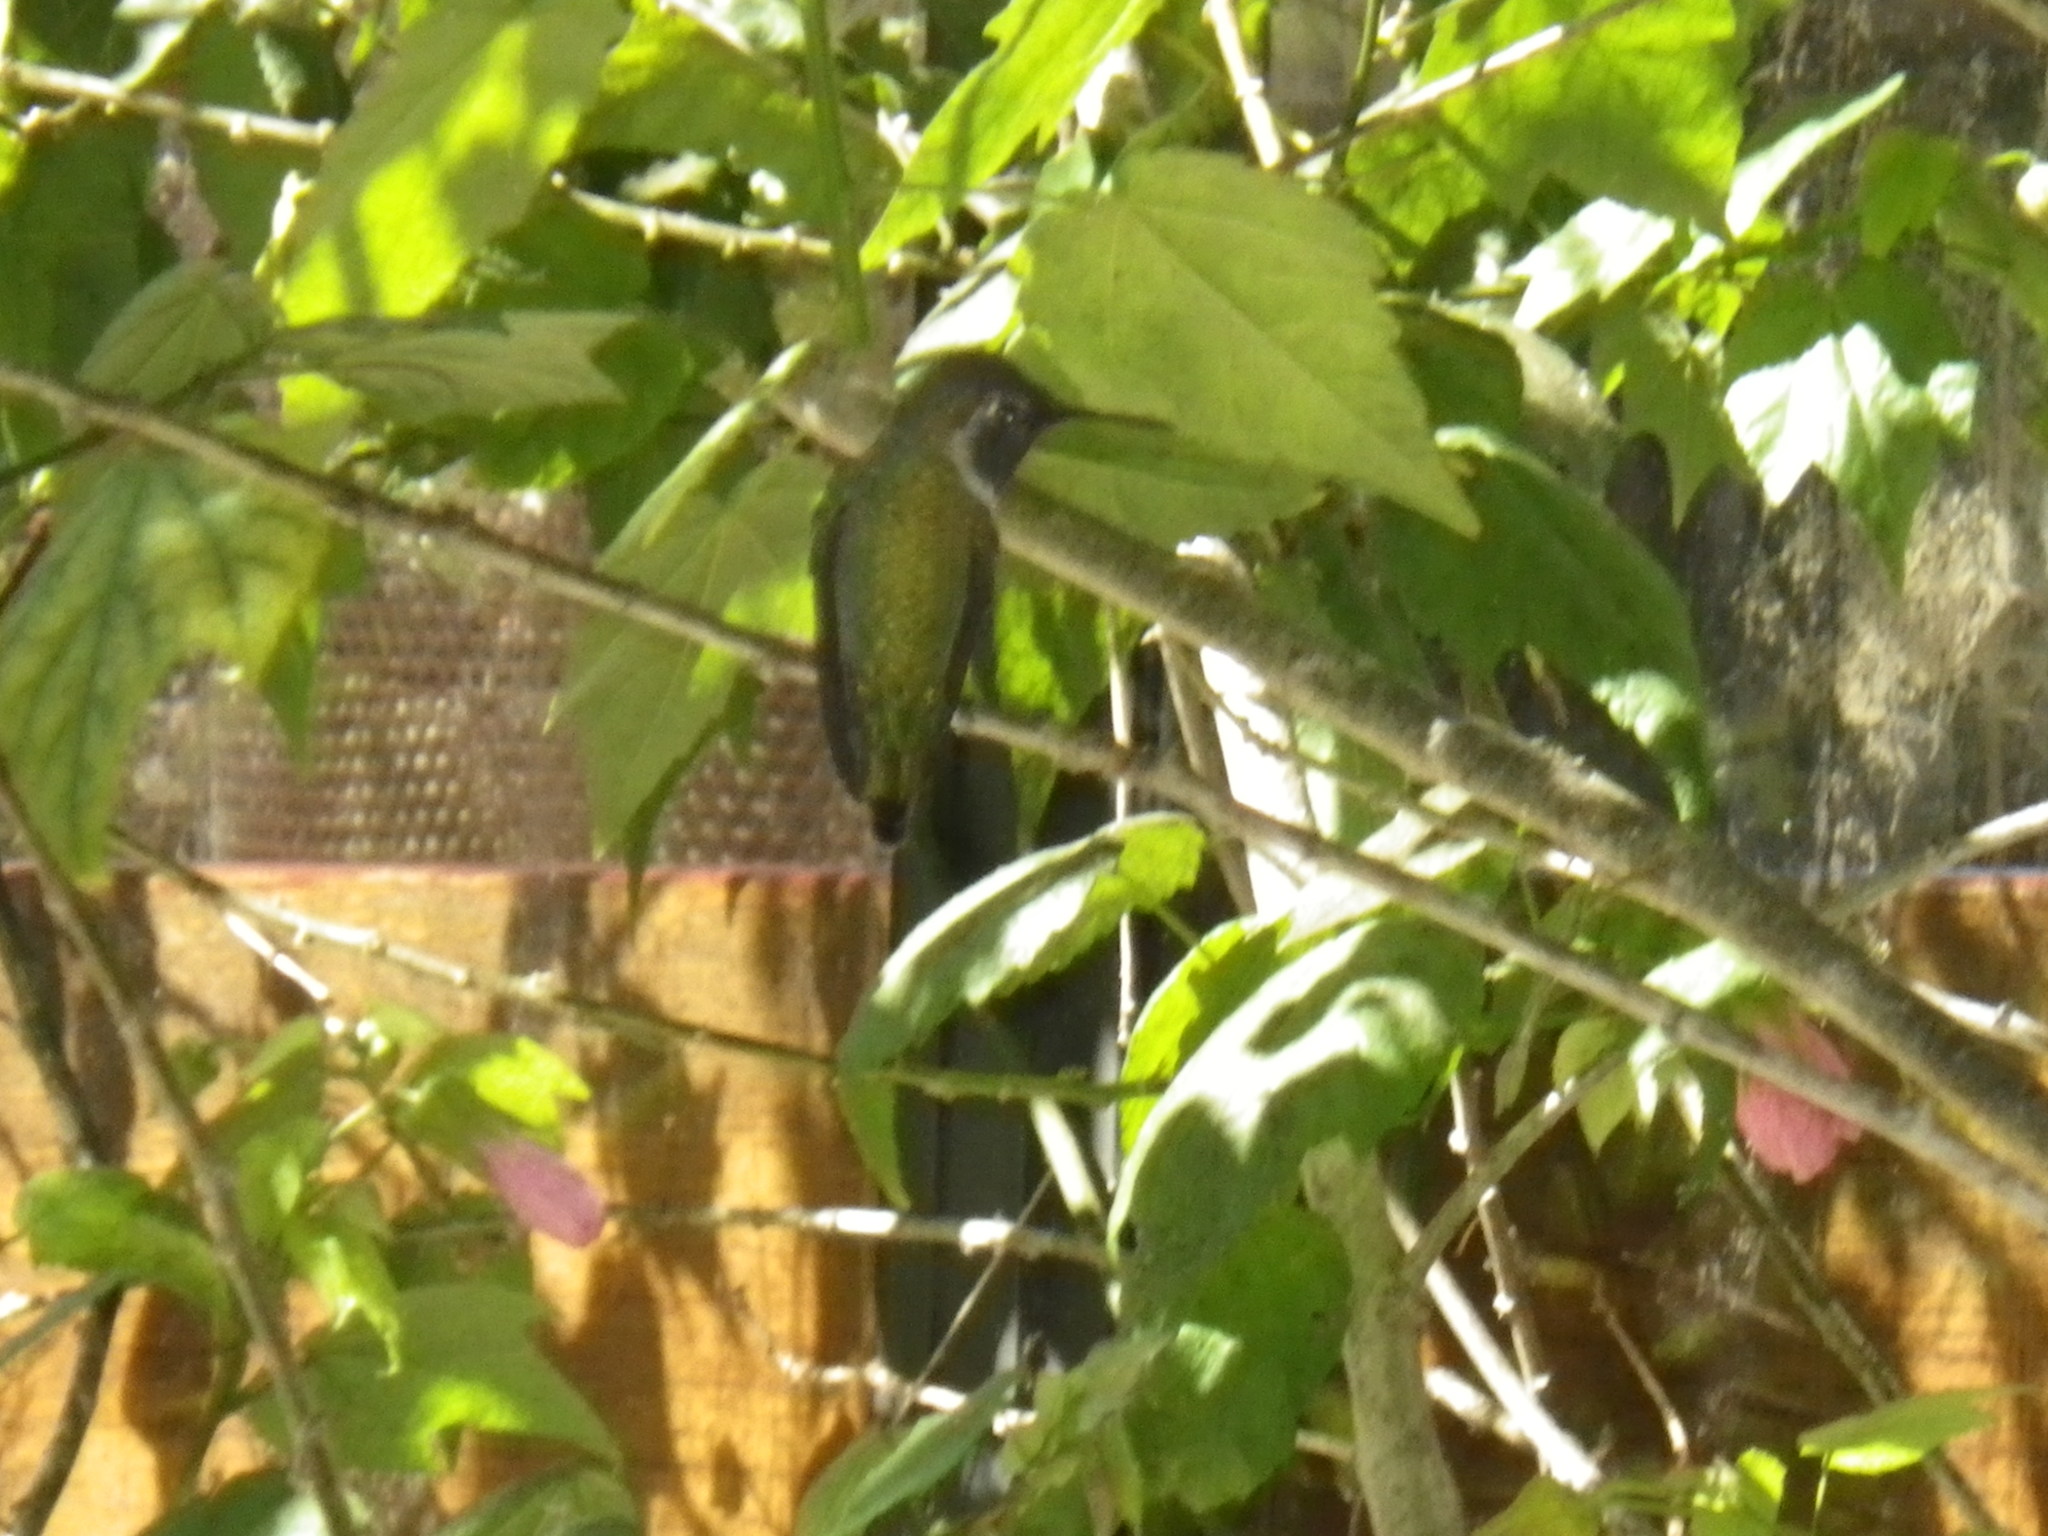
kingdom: Animalia
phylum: Chordata
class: Aves
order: Apodiformes
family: Trochilidae
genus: Calypte
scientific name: Calypte anna
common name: Anna's hummingbird
